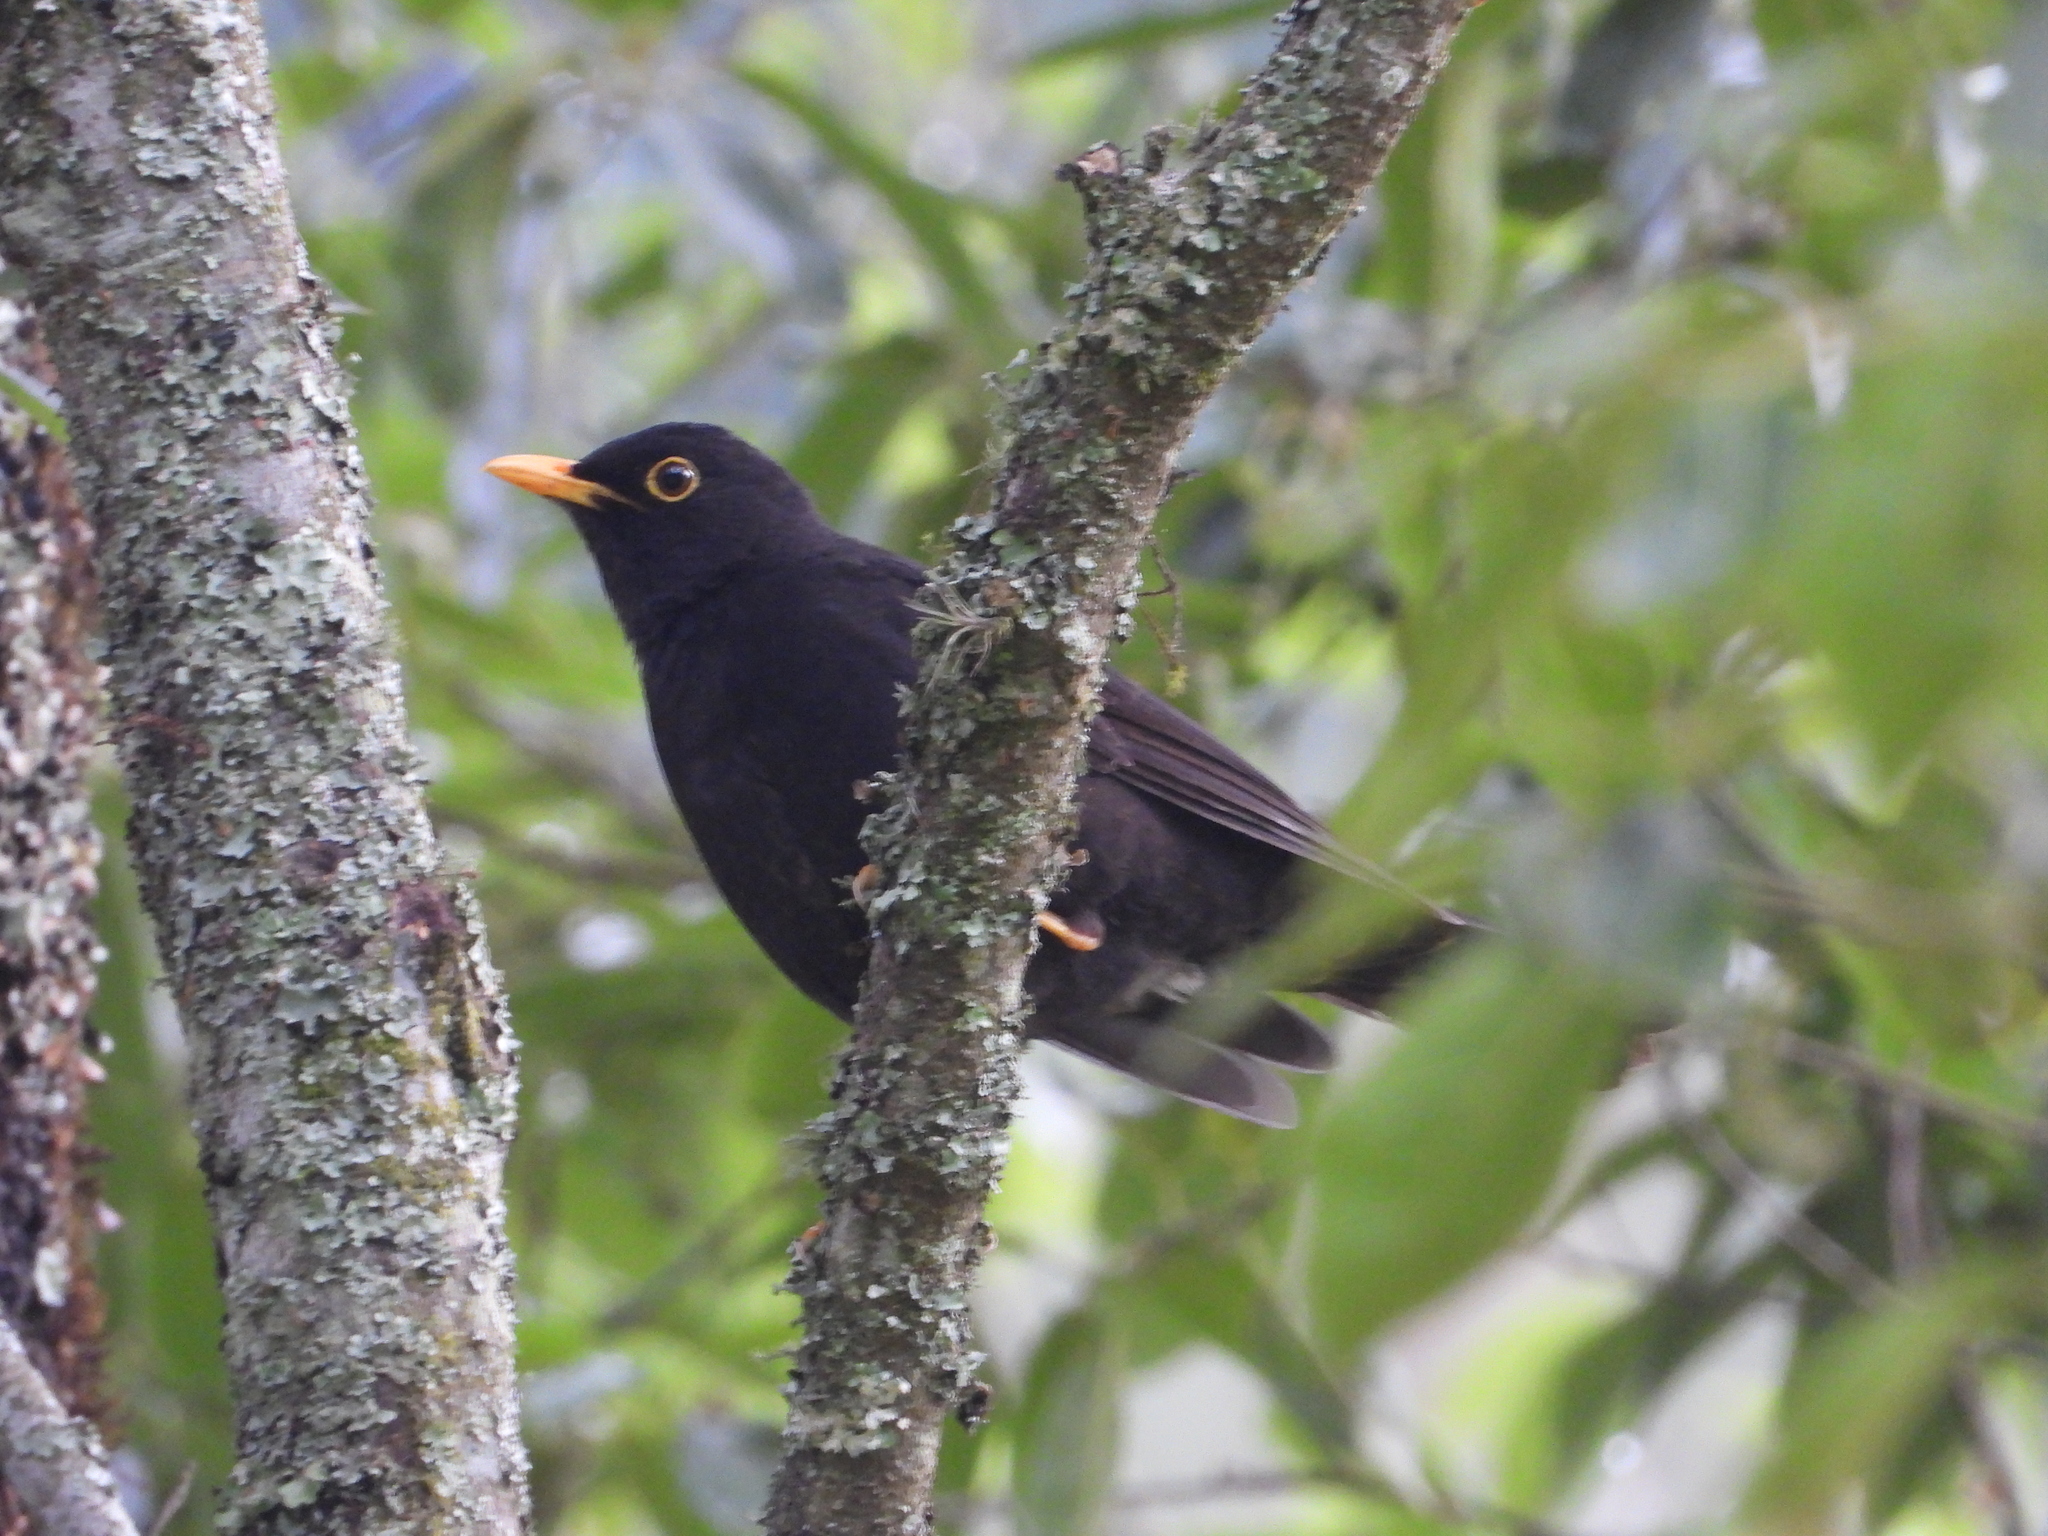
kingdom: Animalia
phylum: Chordata
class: Aves
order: Passeriformes
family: Turdidae
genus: Turdus
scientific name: Turdus infuscatus
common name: Black thrush
